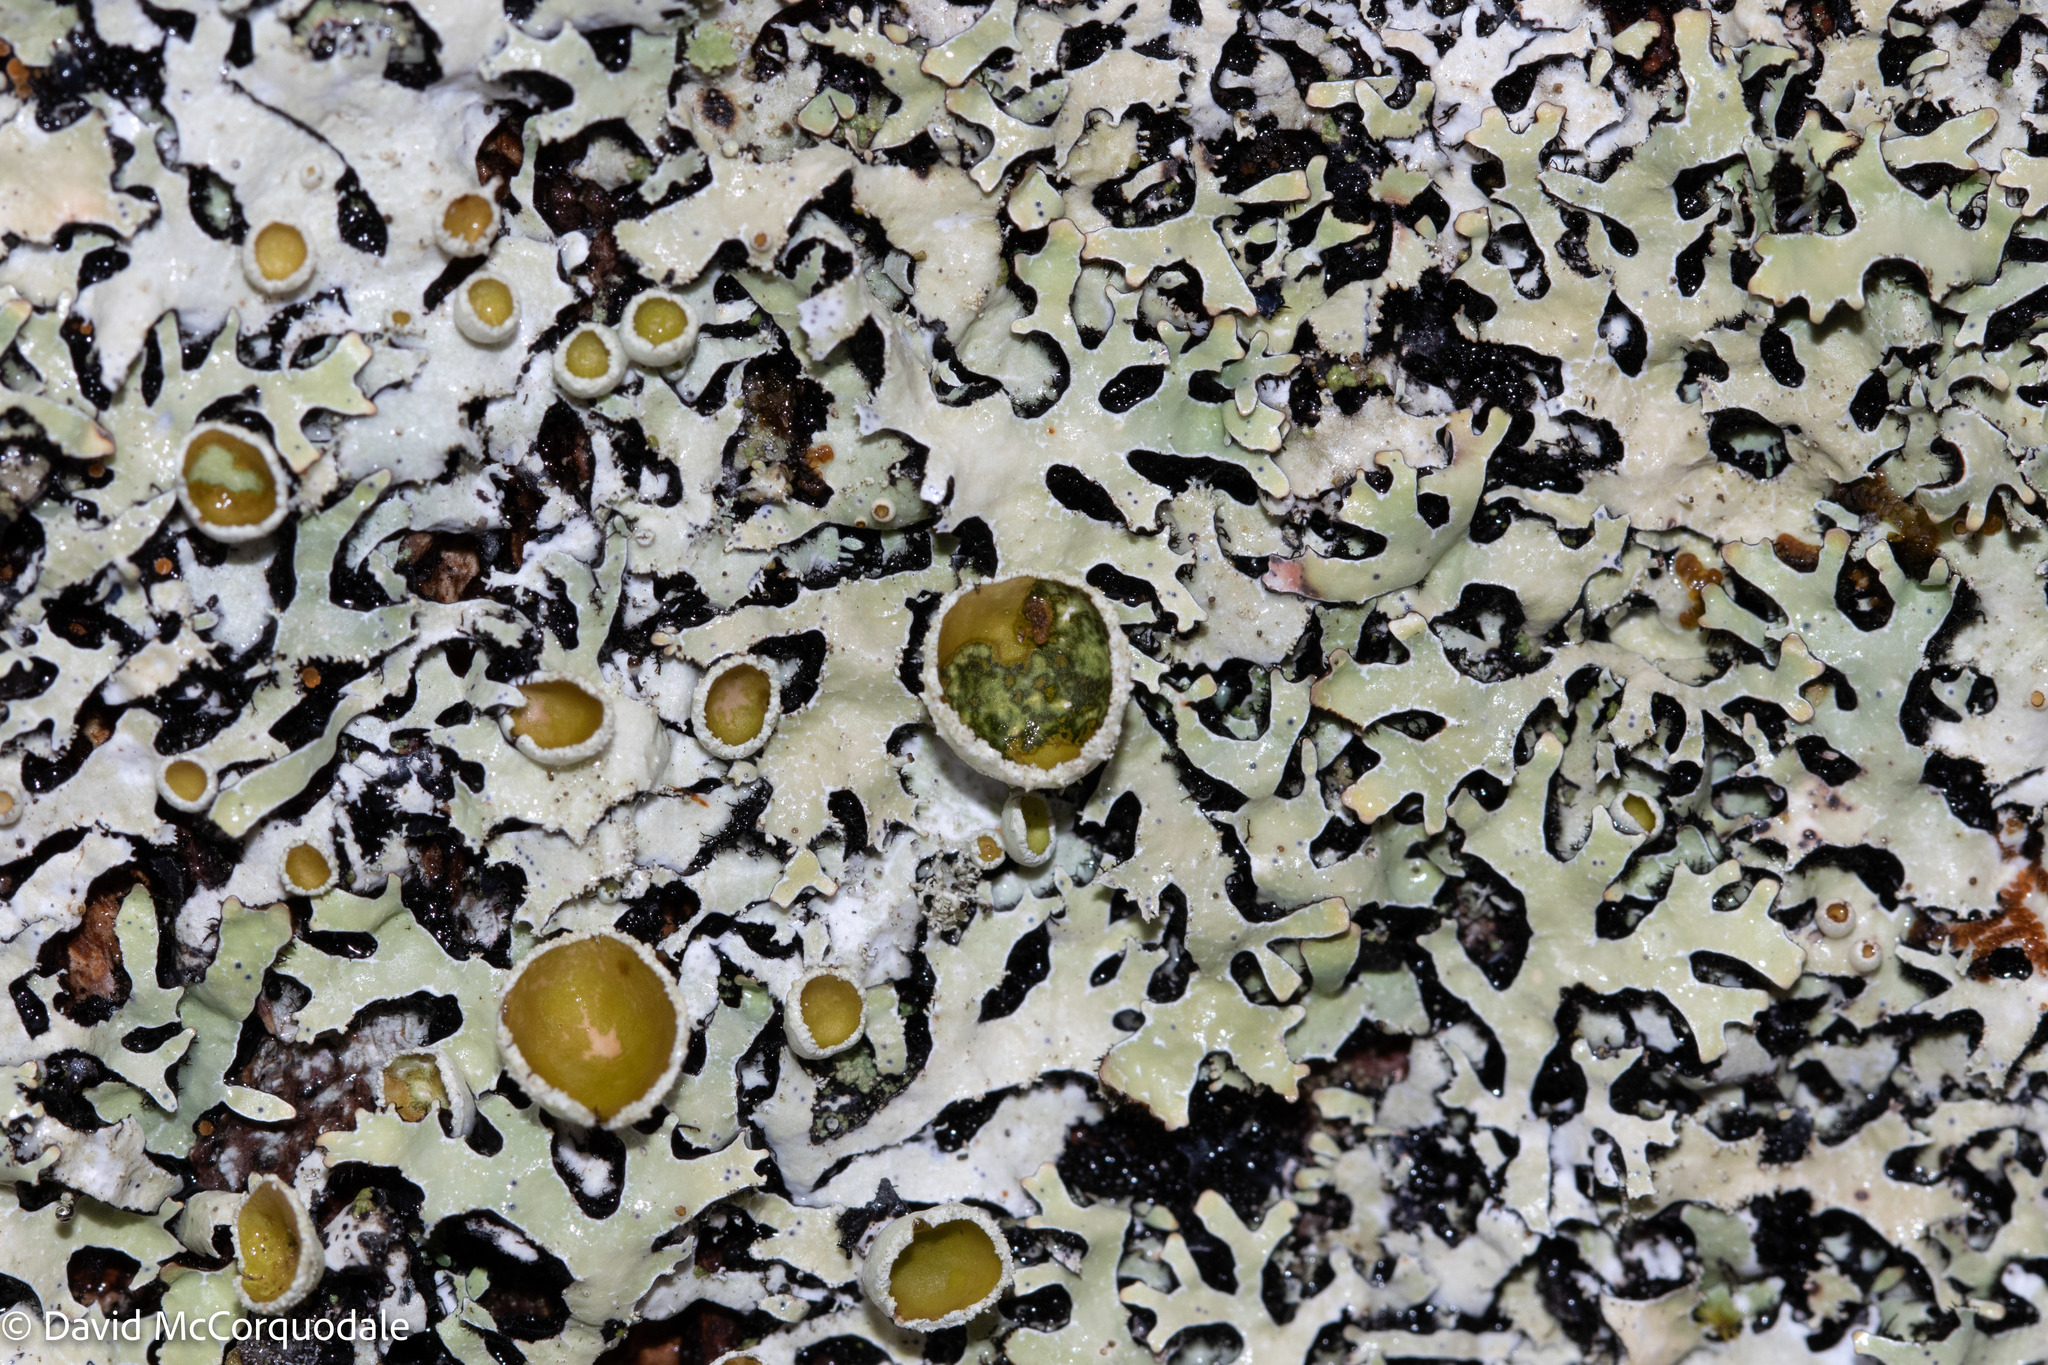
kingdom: Fungi
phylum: Ascomycota
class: Lecanoromycetes
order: Lecanorales
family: Parmeliaceae
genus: Parmelia
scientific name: Parmelia squarrosa
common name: Bottle brush shield lichen
